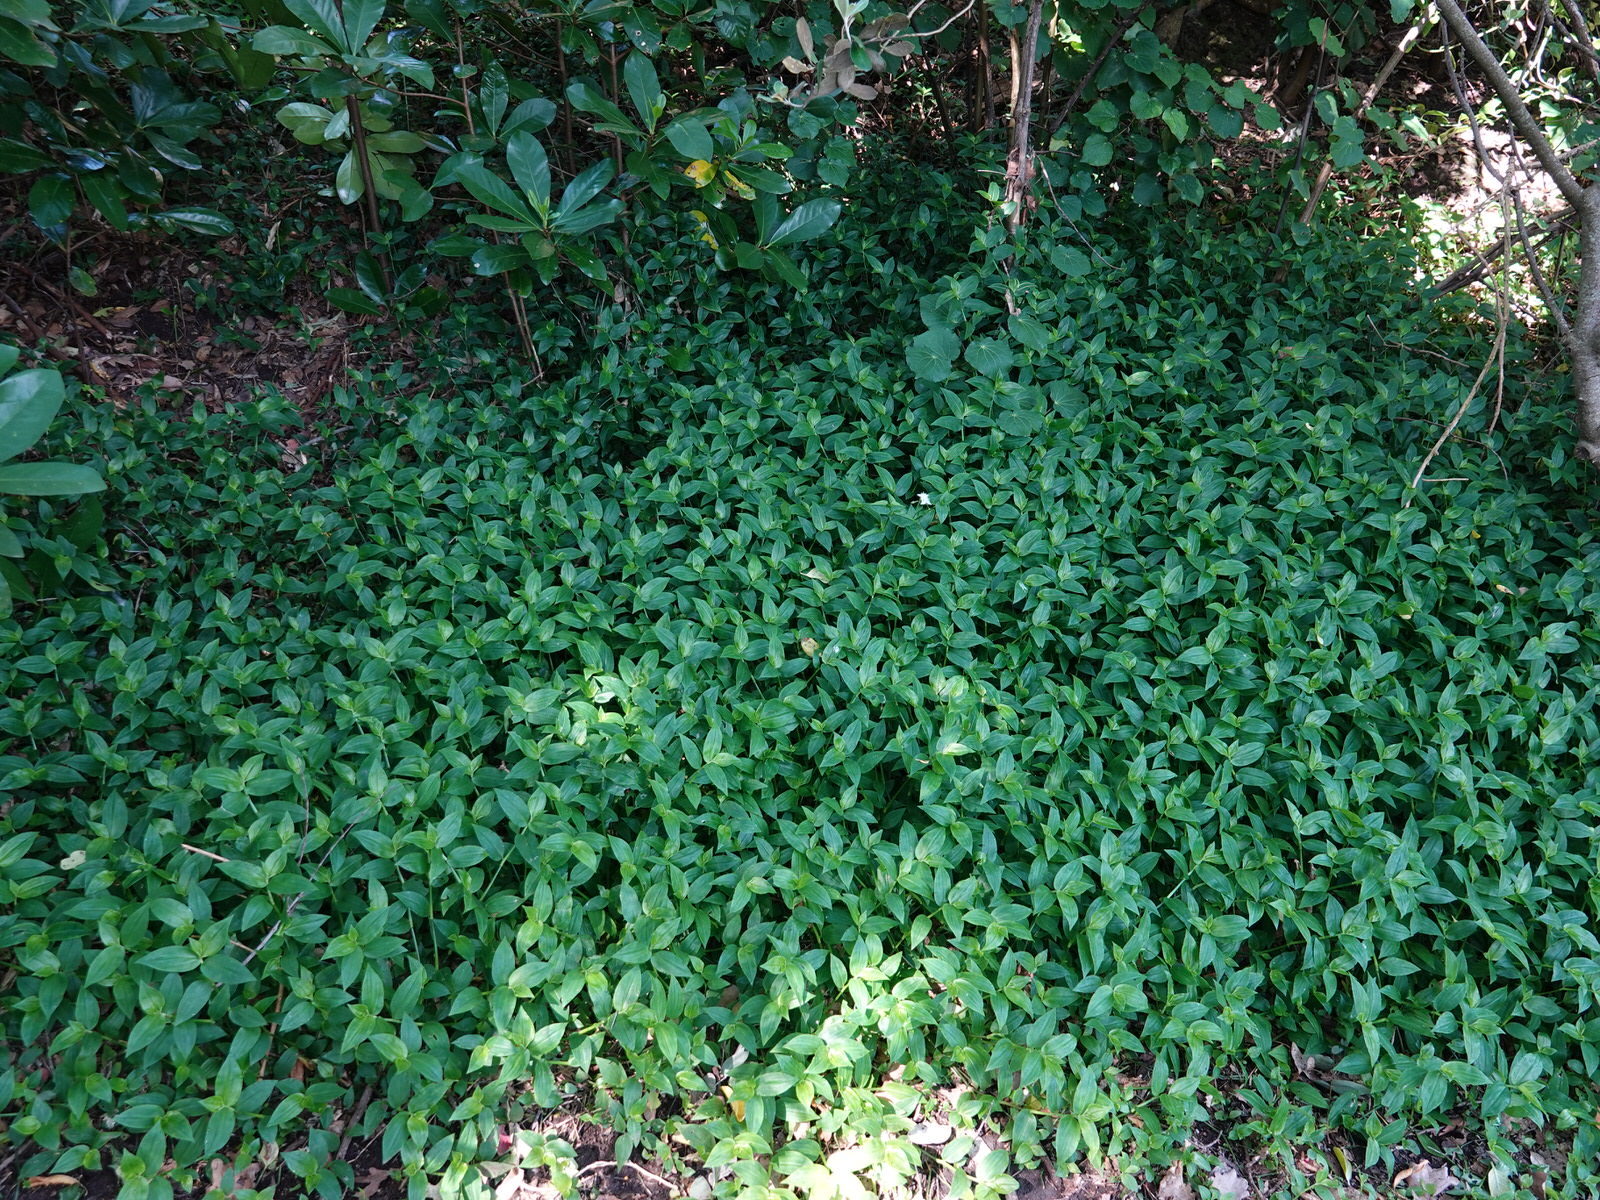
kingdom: Plantae
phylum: Tracheophyta
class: Liliopsida
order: Commelinales
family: Commelinaceae
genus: Tradescantia
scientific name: Tradescantia fluminensis
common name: Wandering-jew
